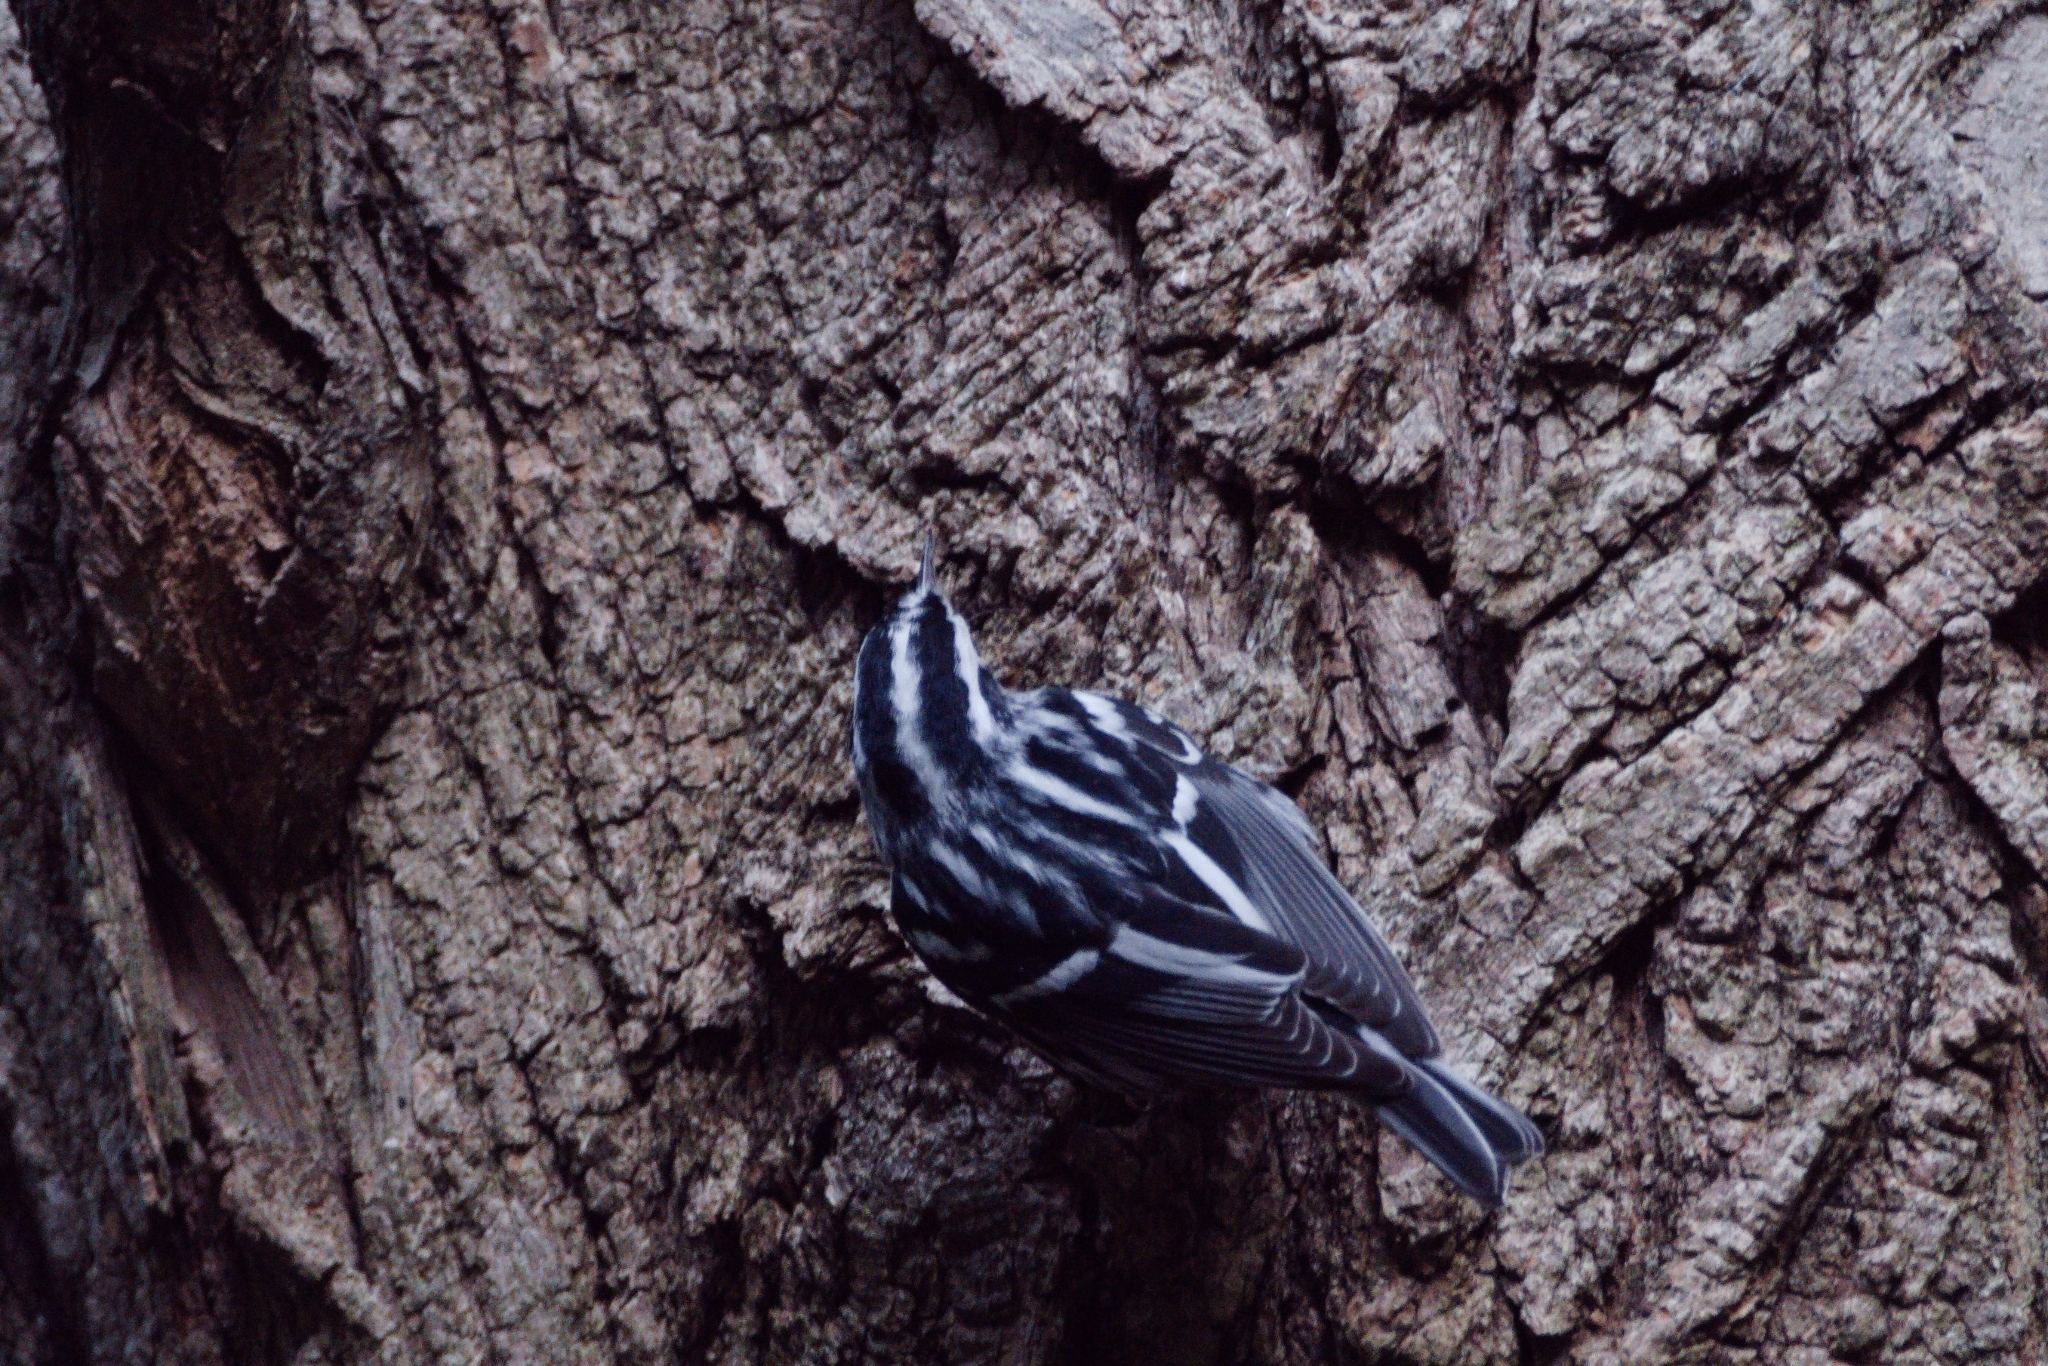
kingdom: Animalia
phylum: Chordata
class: Aves
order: Passeriformes
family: Parulidae
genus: Mniotilta
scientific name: Mniotilta varia
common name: Black-and-white warbler
